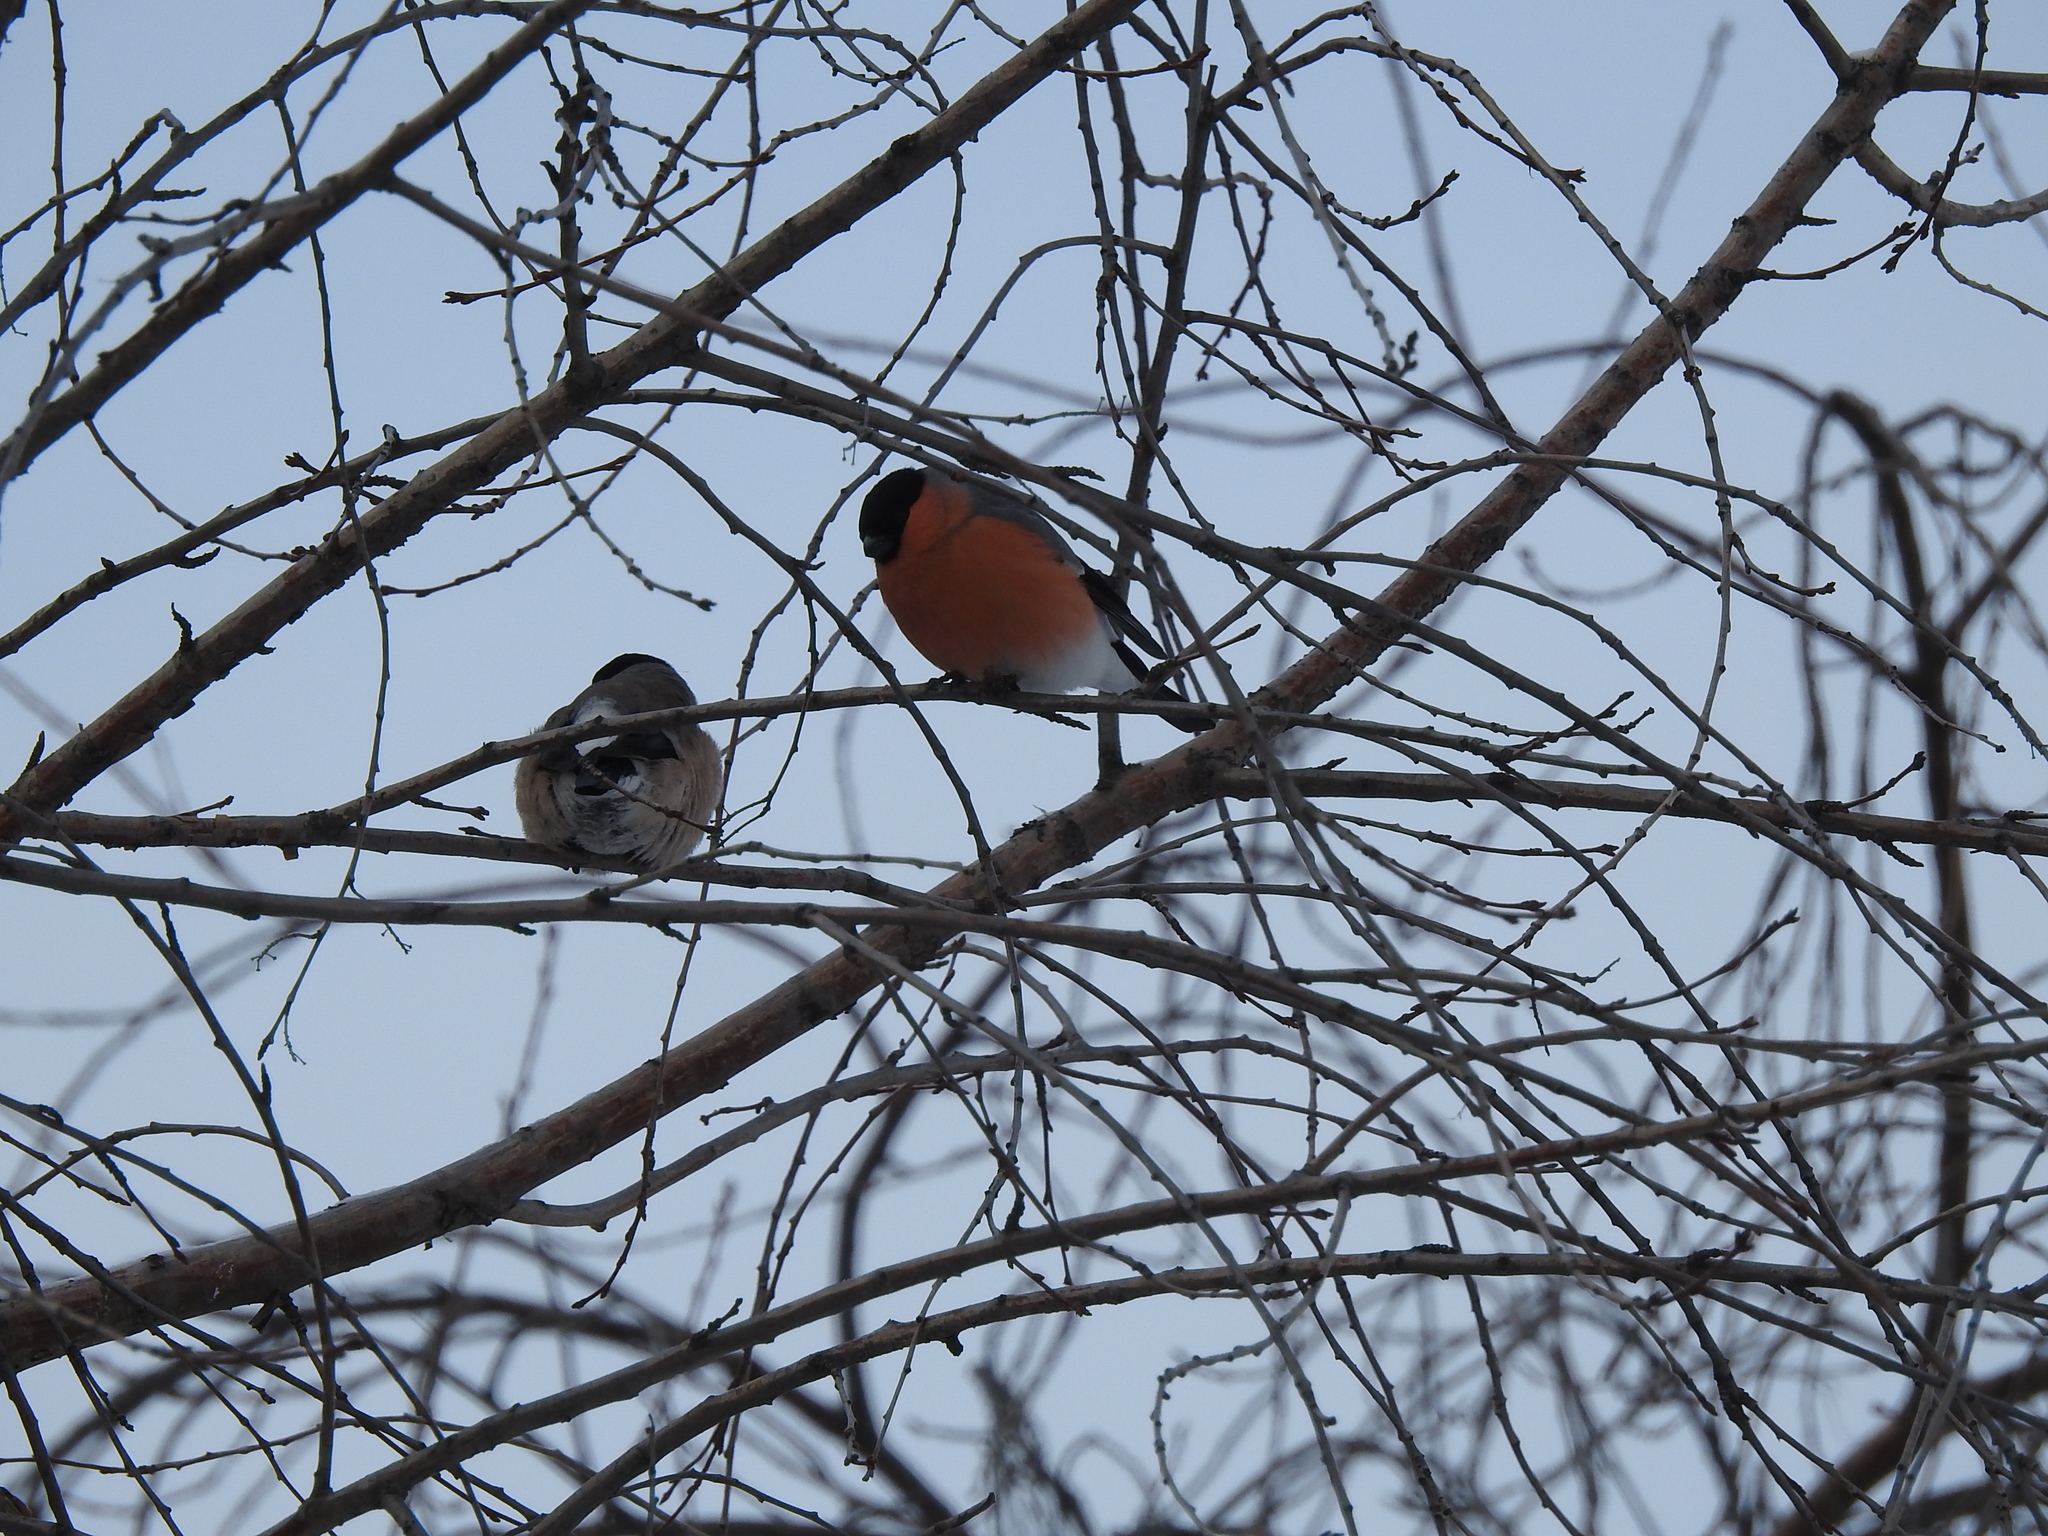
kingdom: Animalia
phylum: Chordata
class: Aves
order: Passeriformes
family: Fringillidae
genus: Pyrrhula
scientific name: Pyrrhula pyrrhula
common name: Eurasian bullfinch
